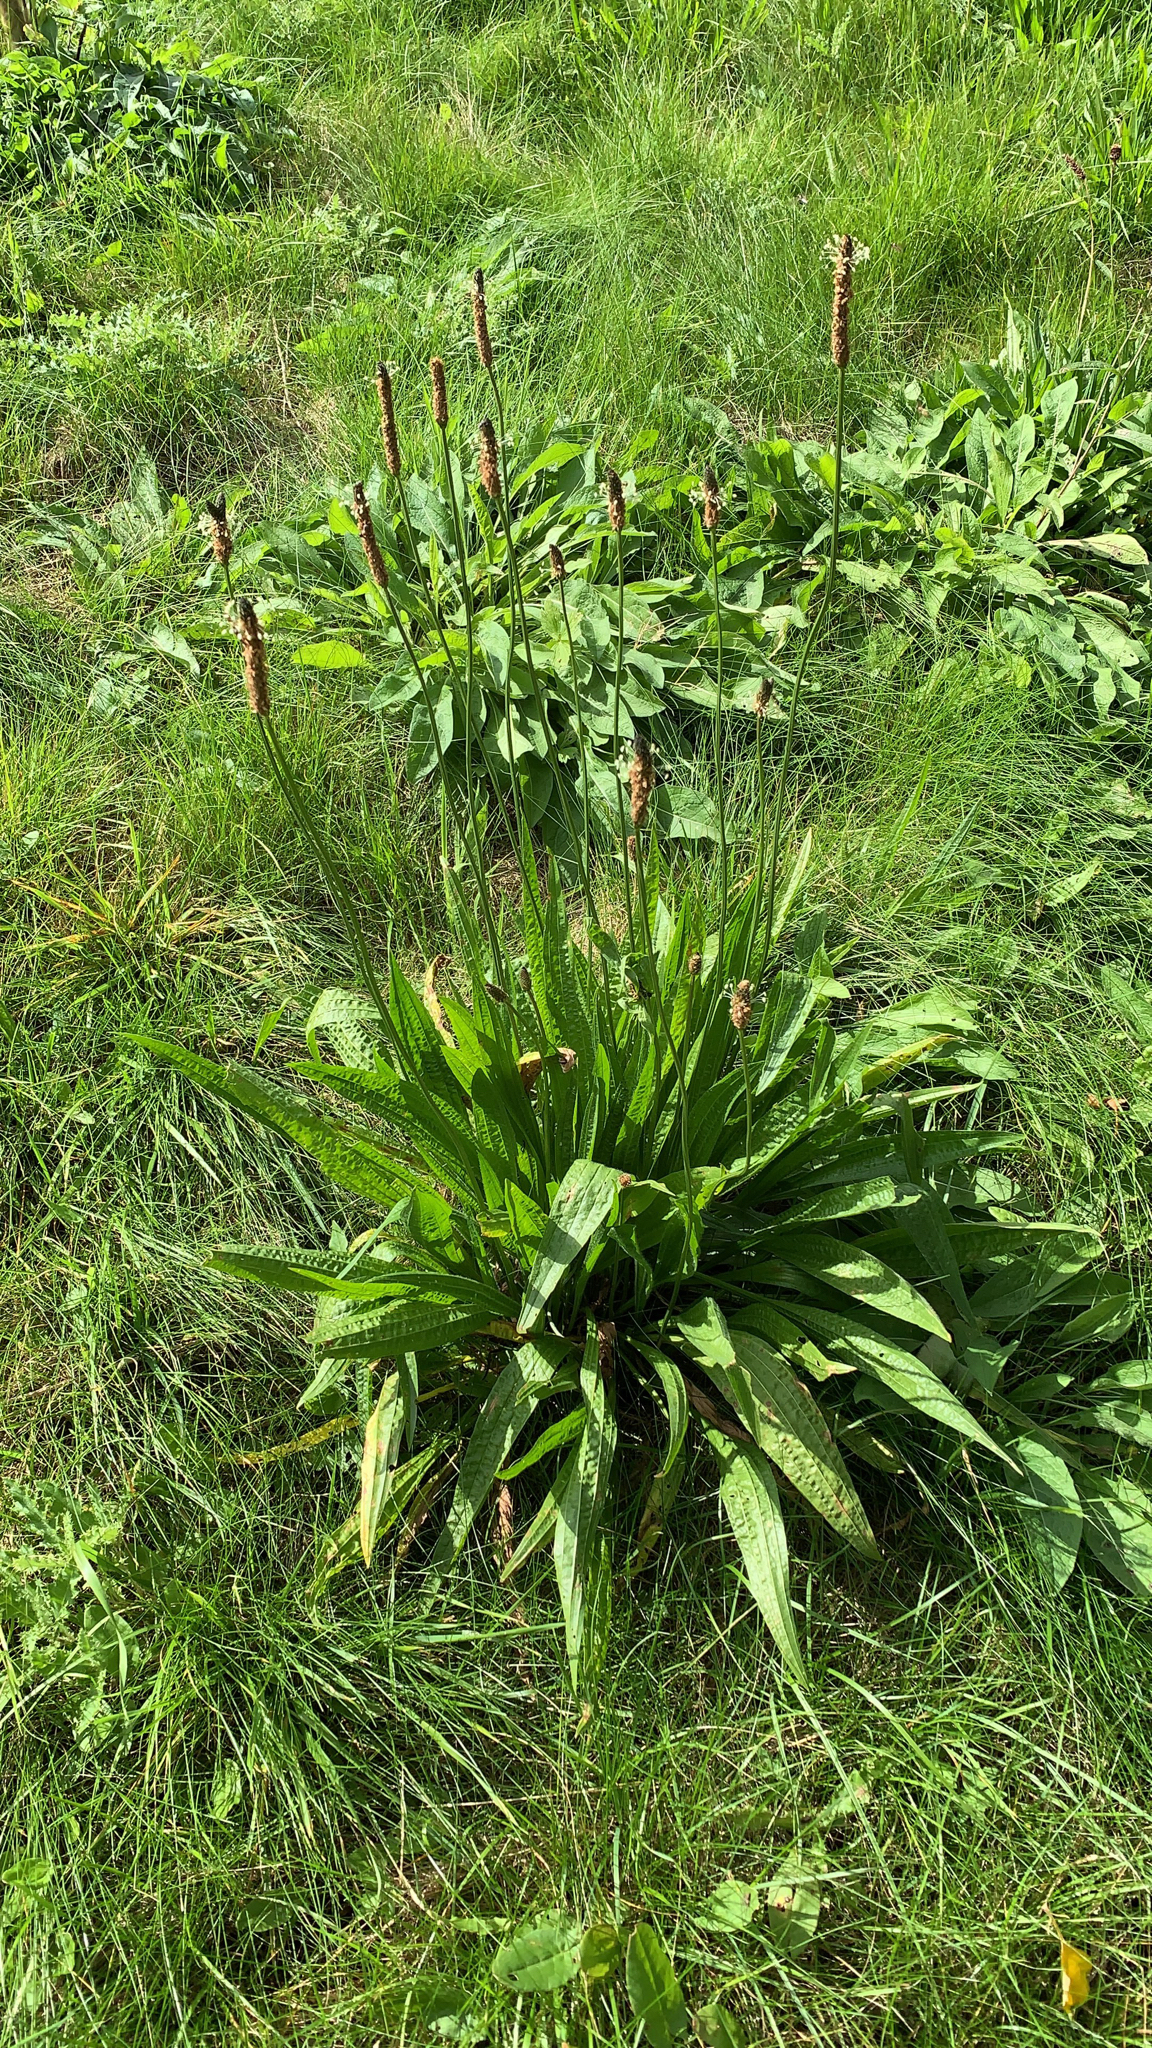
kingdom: Plantae
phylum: Tracheophyta
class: Magnoliopsida
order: Lamiales
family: Plantaginaceae
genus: Plantago
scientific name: Plantago lanceolata
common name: Ribwort plantain
